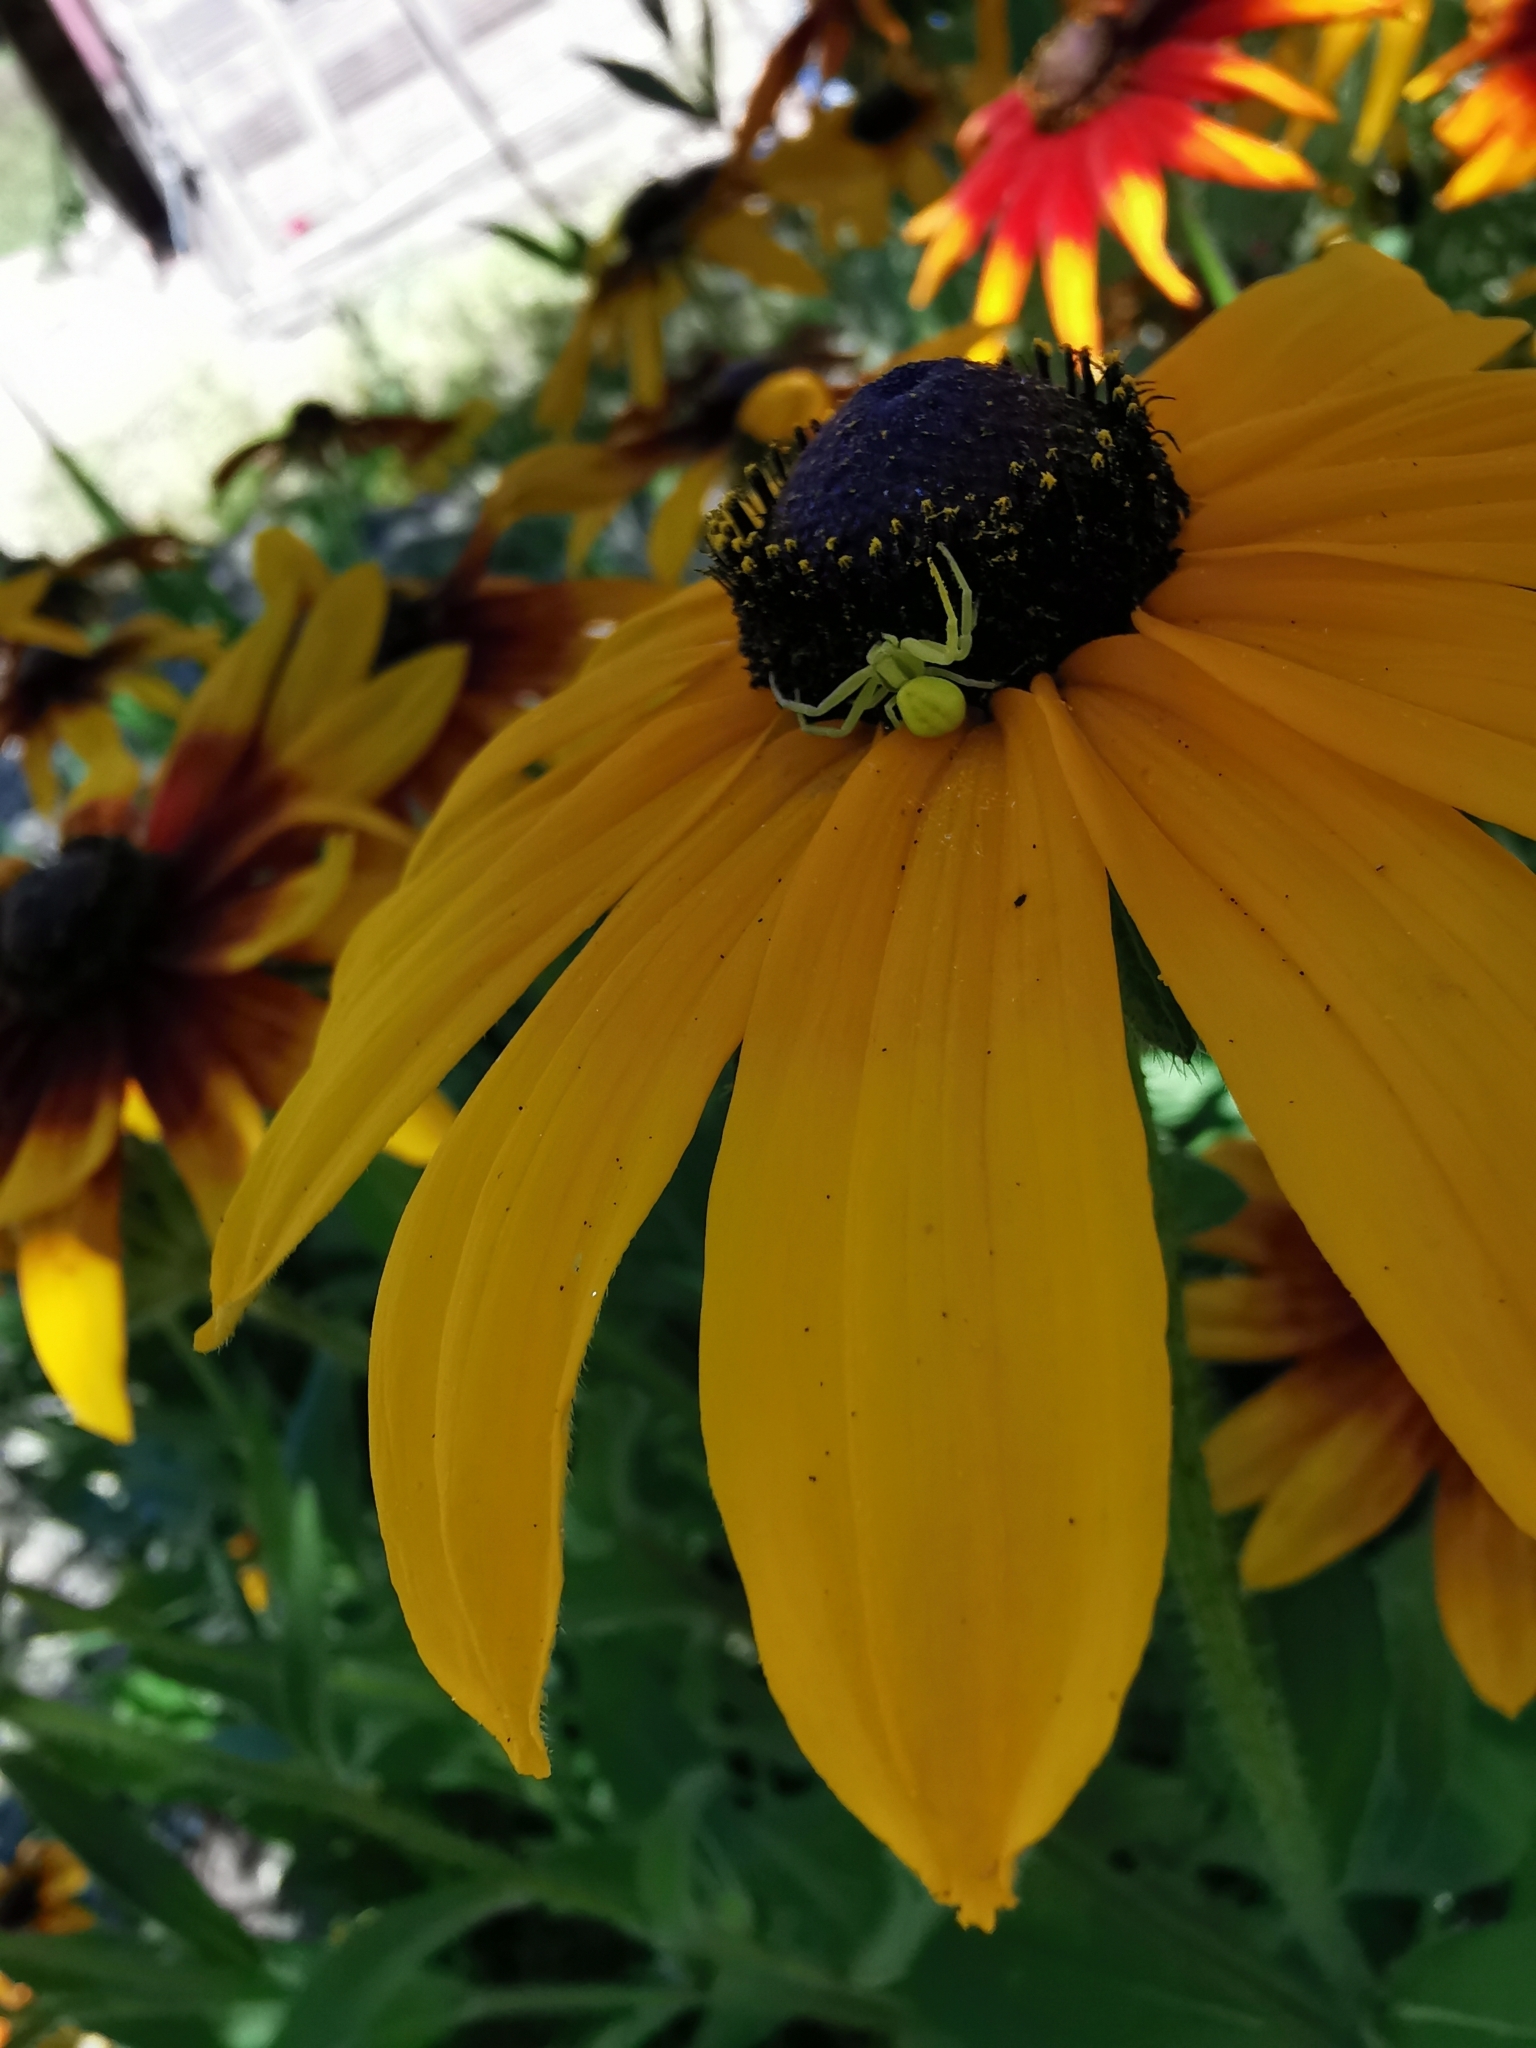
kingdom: Animalia
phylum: Arthropoda
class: Arachnida
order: Araneae
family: Thomisidae
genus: Misumena
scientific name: Misumena vatia
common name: Goldenrod crab spider
